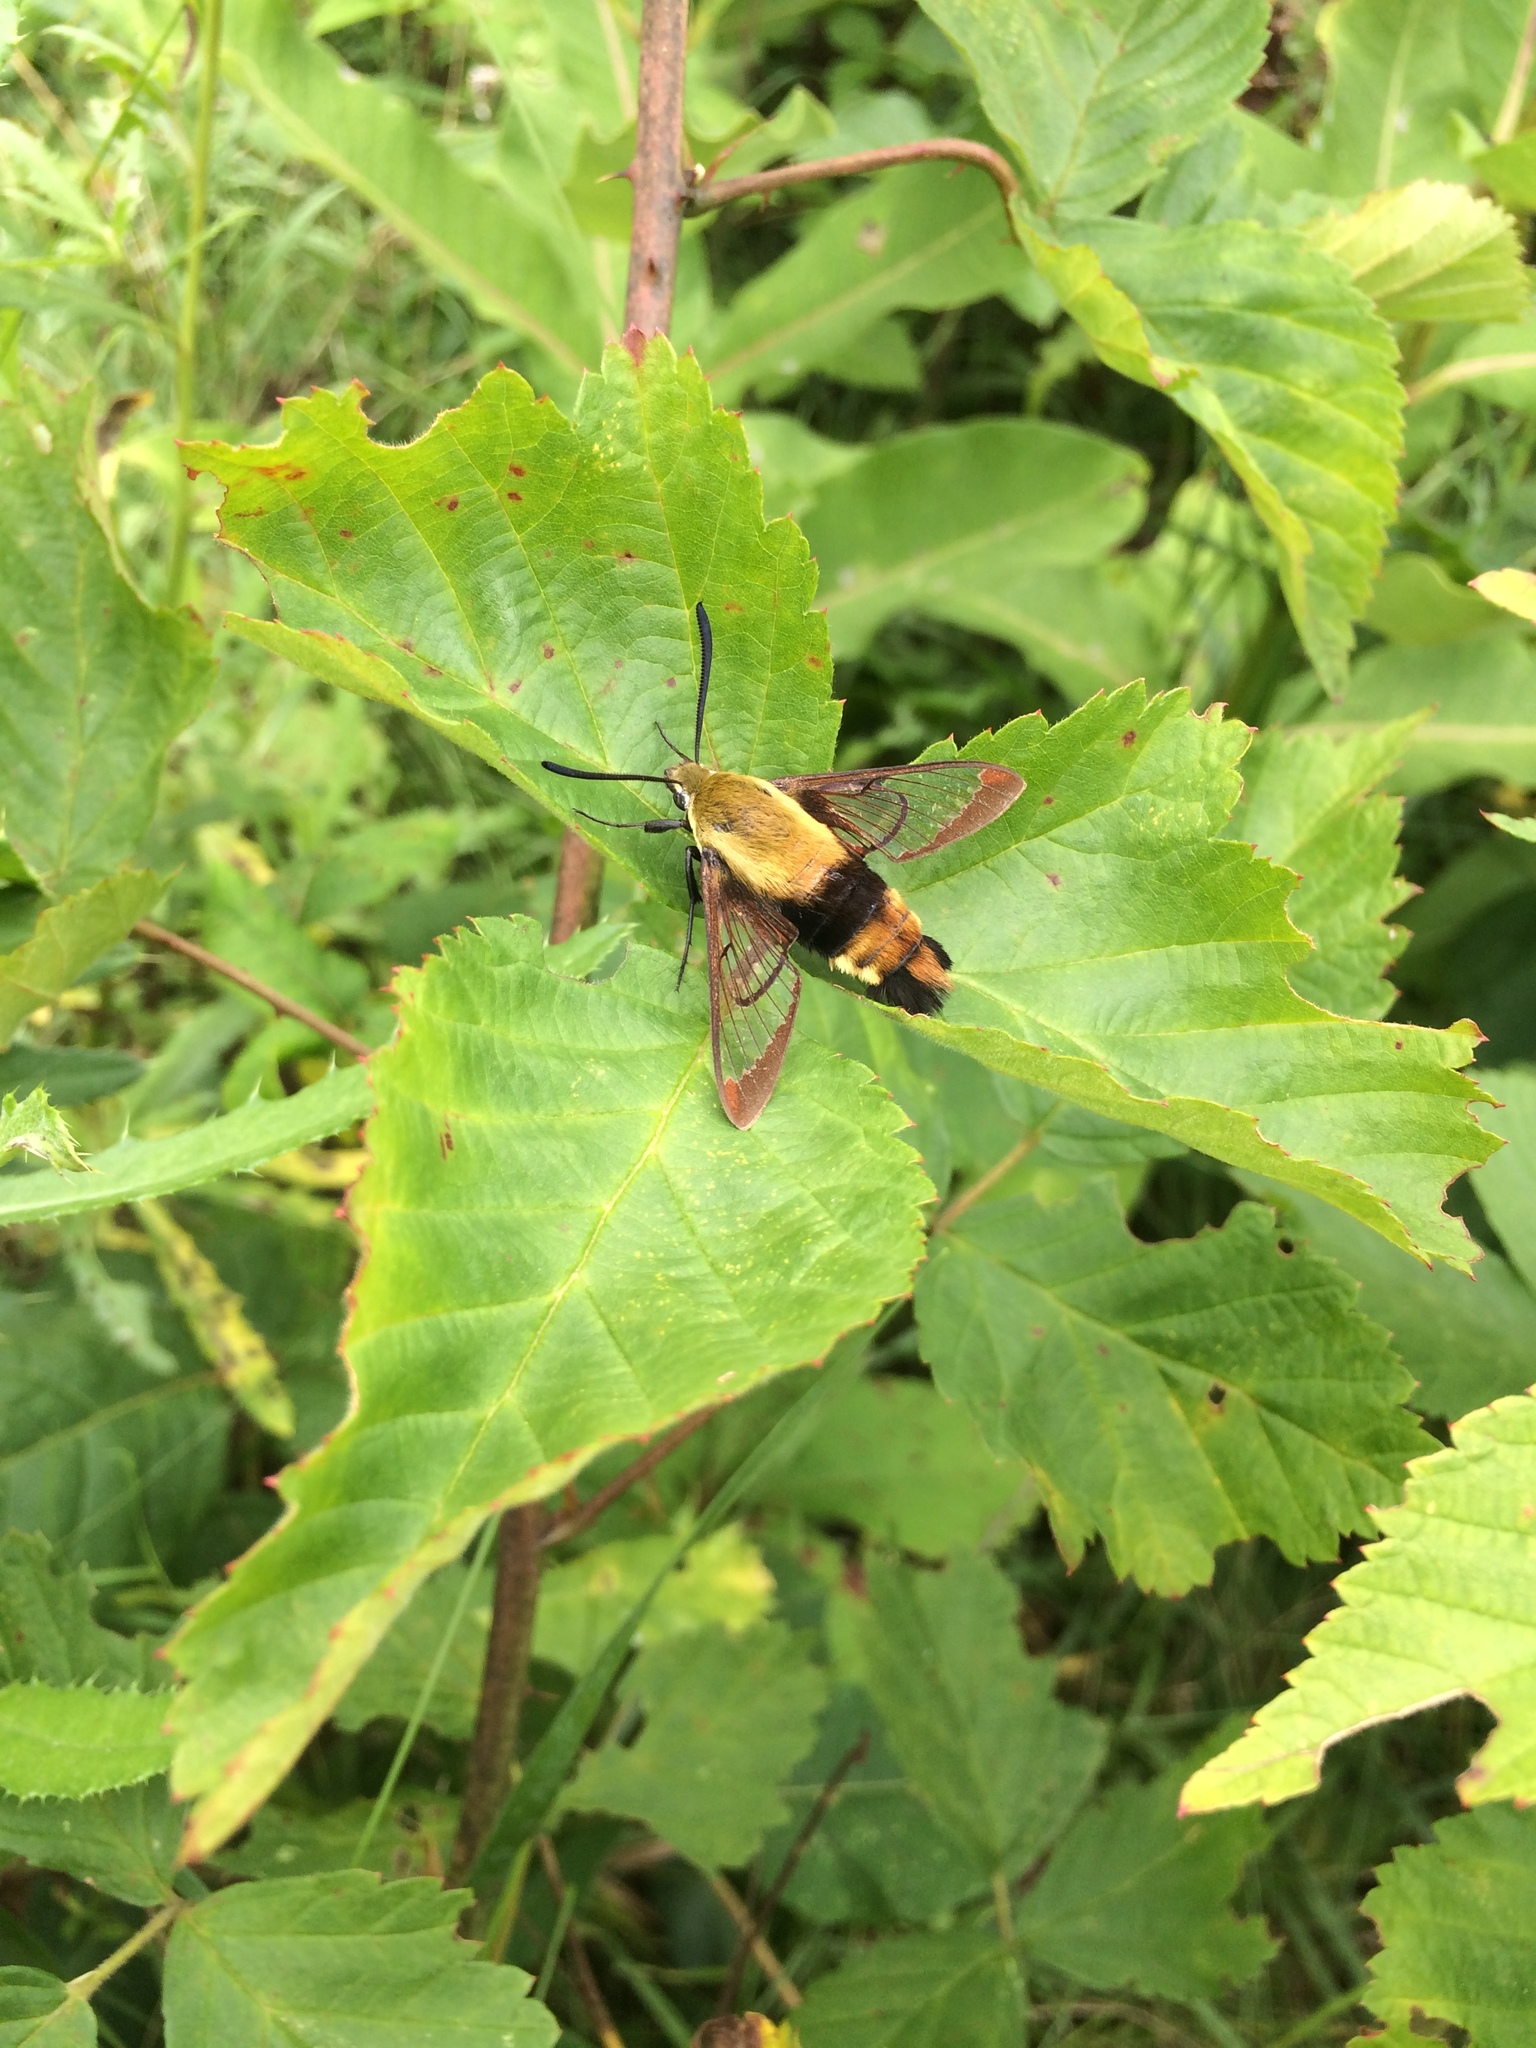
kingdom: Animalia
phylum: Arthropoda
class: Insecta
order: Lepidoptera
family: Sphingidae
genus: Hemaris
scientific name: Hemaris diffinis
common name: Bumblebee moth
